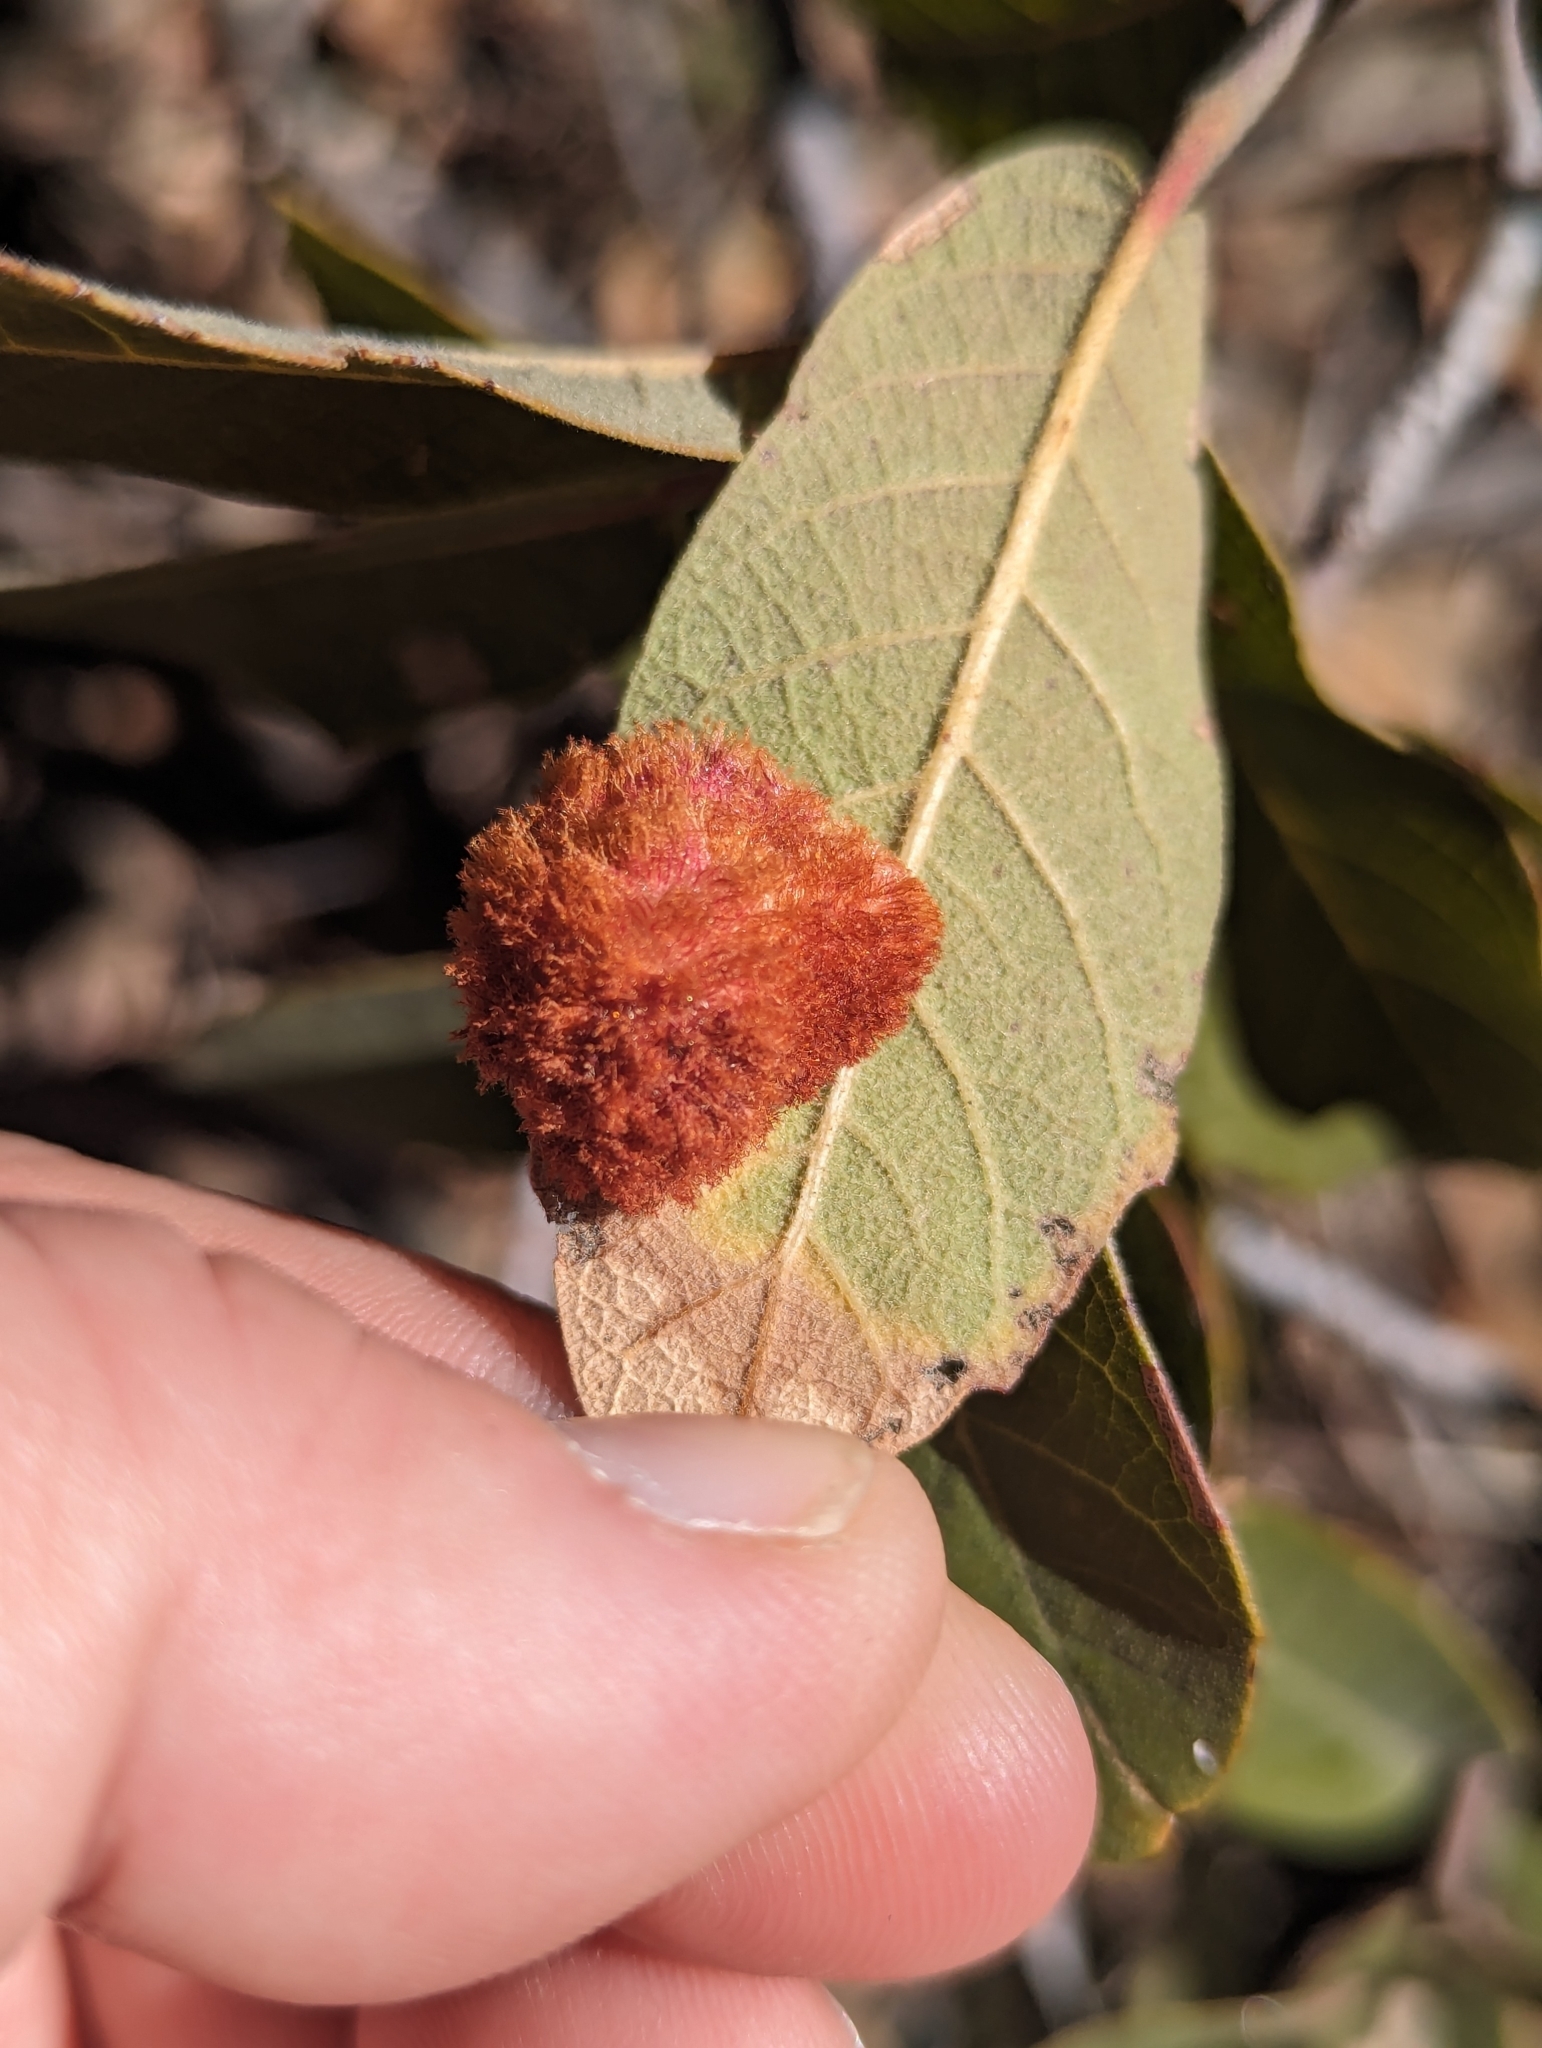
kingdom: Animalia
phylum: Arthropoda
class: Insecta
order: Hymenoptera
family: Cynipidae
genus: Andricus
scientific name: Andricus
